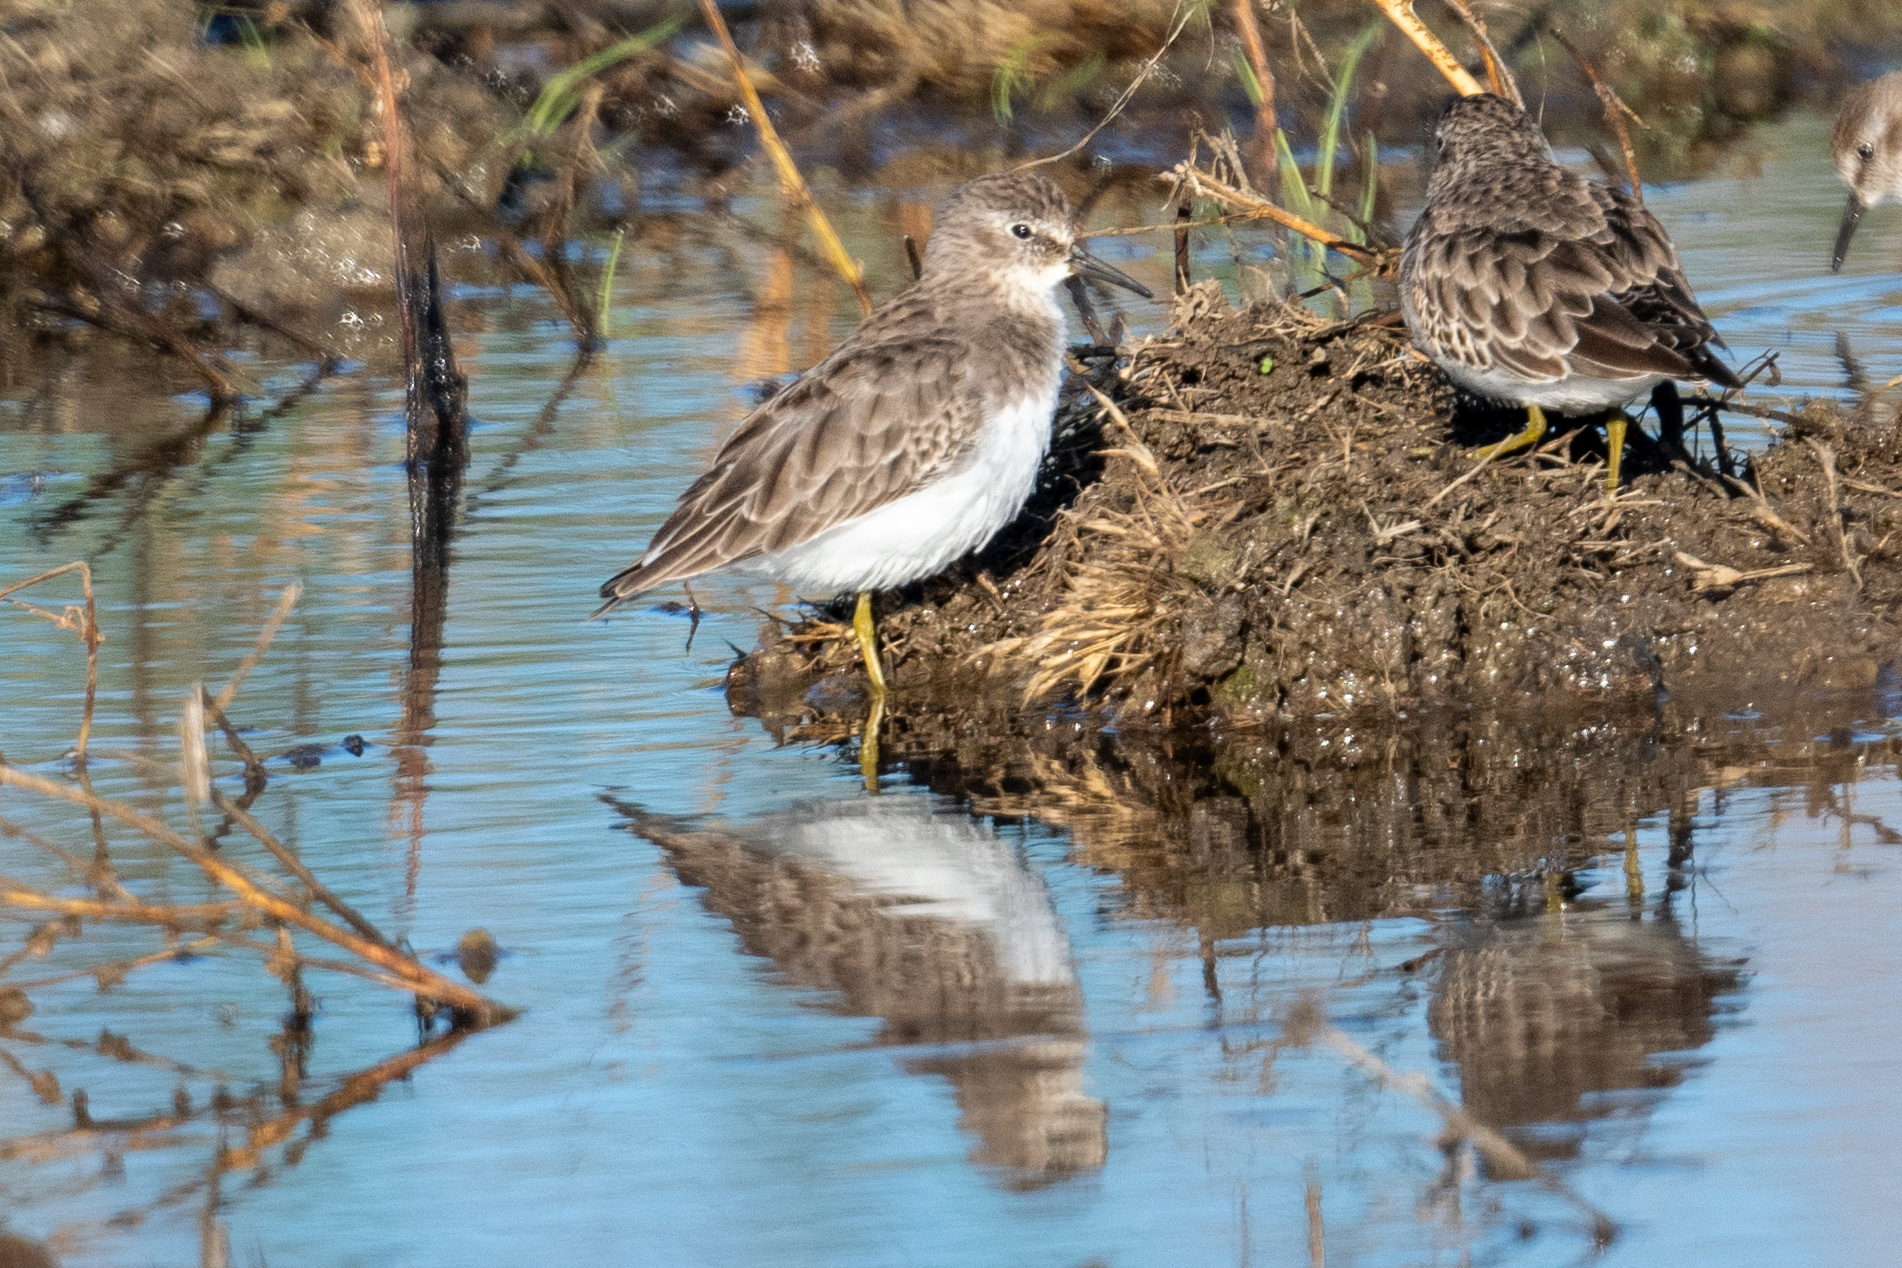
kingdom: Animalia
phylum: Chordata
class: Aves
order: Charadriiformes
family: Scolopacidae
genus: Calidris
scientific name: Calidris minutilla
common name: Least sandpiper
